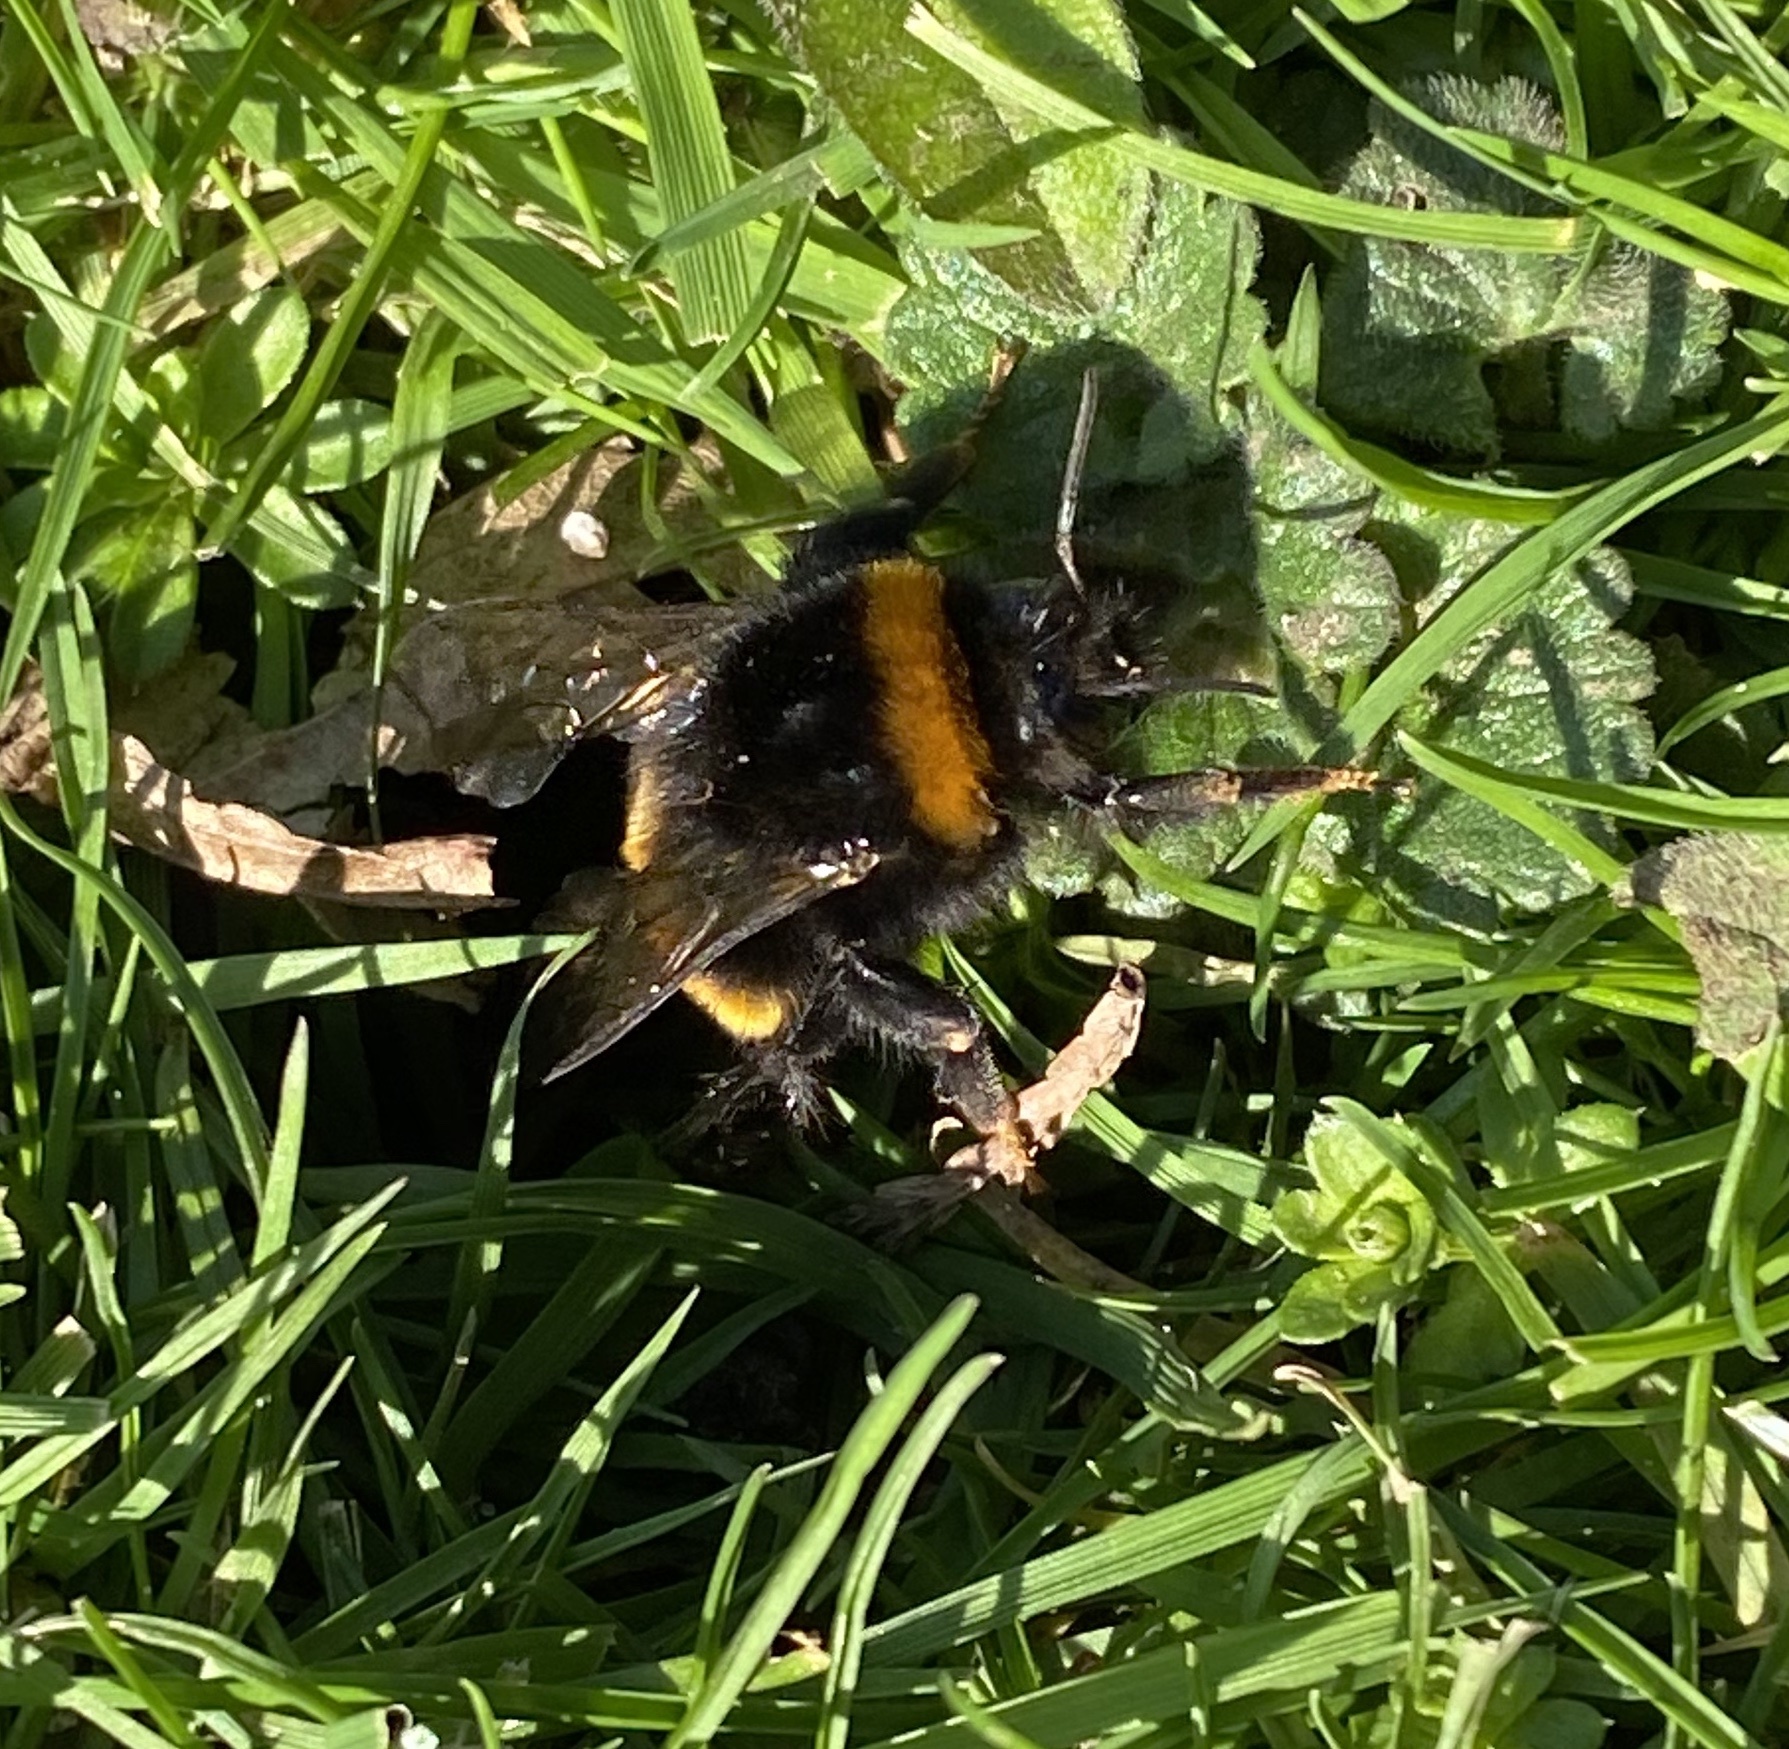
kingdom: Animalia
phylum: Arthropoda
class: Insecta
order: Hymenoptera
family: Apidae
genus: Bombus
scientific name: Bombus terrestris
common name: Buff-tailed bumblebee
